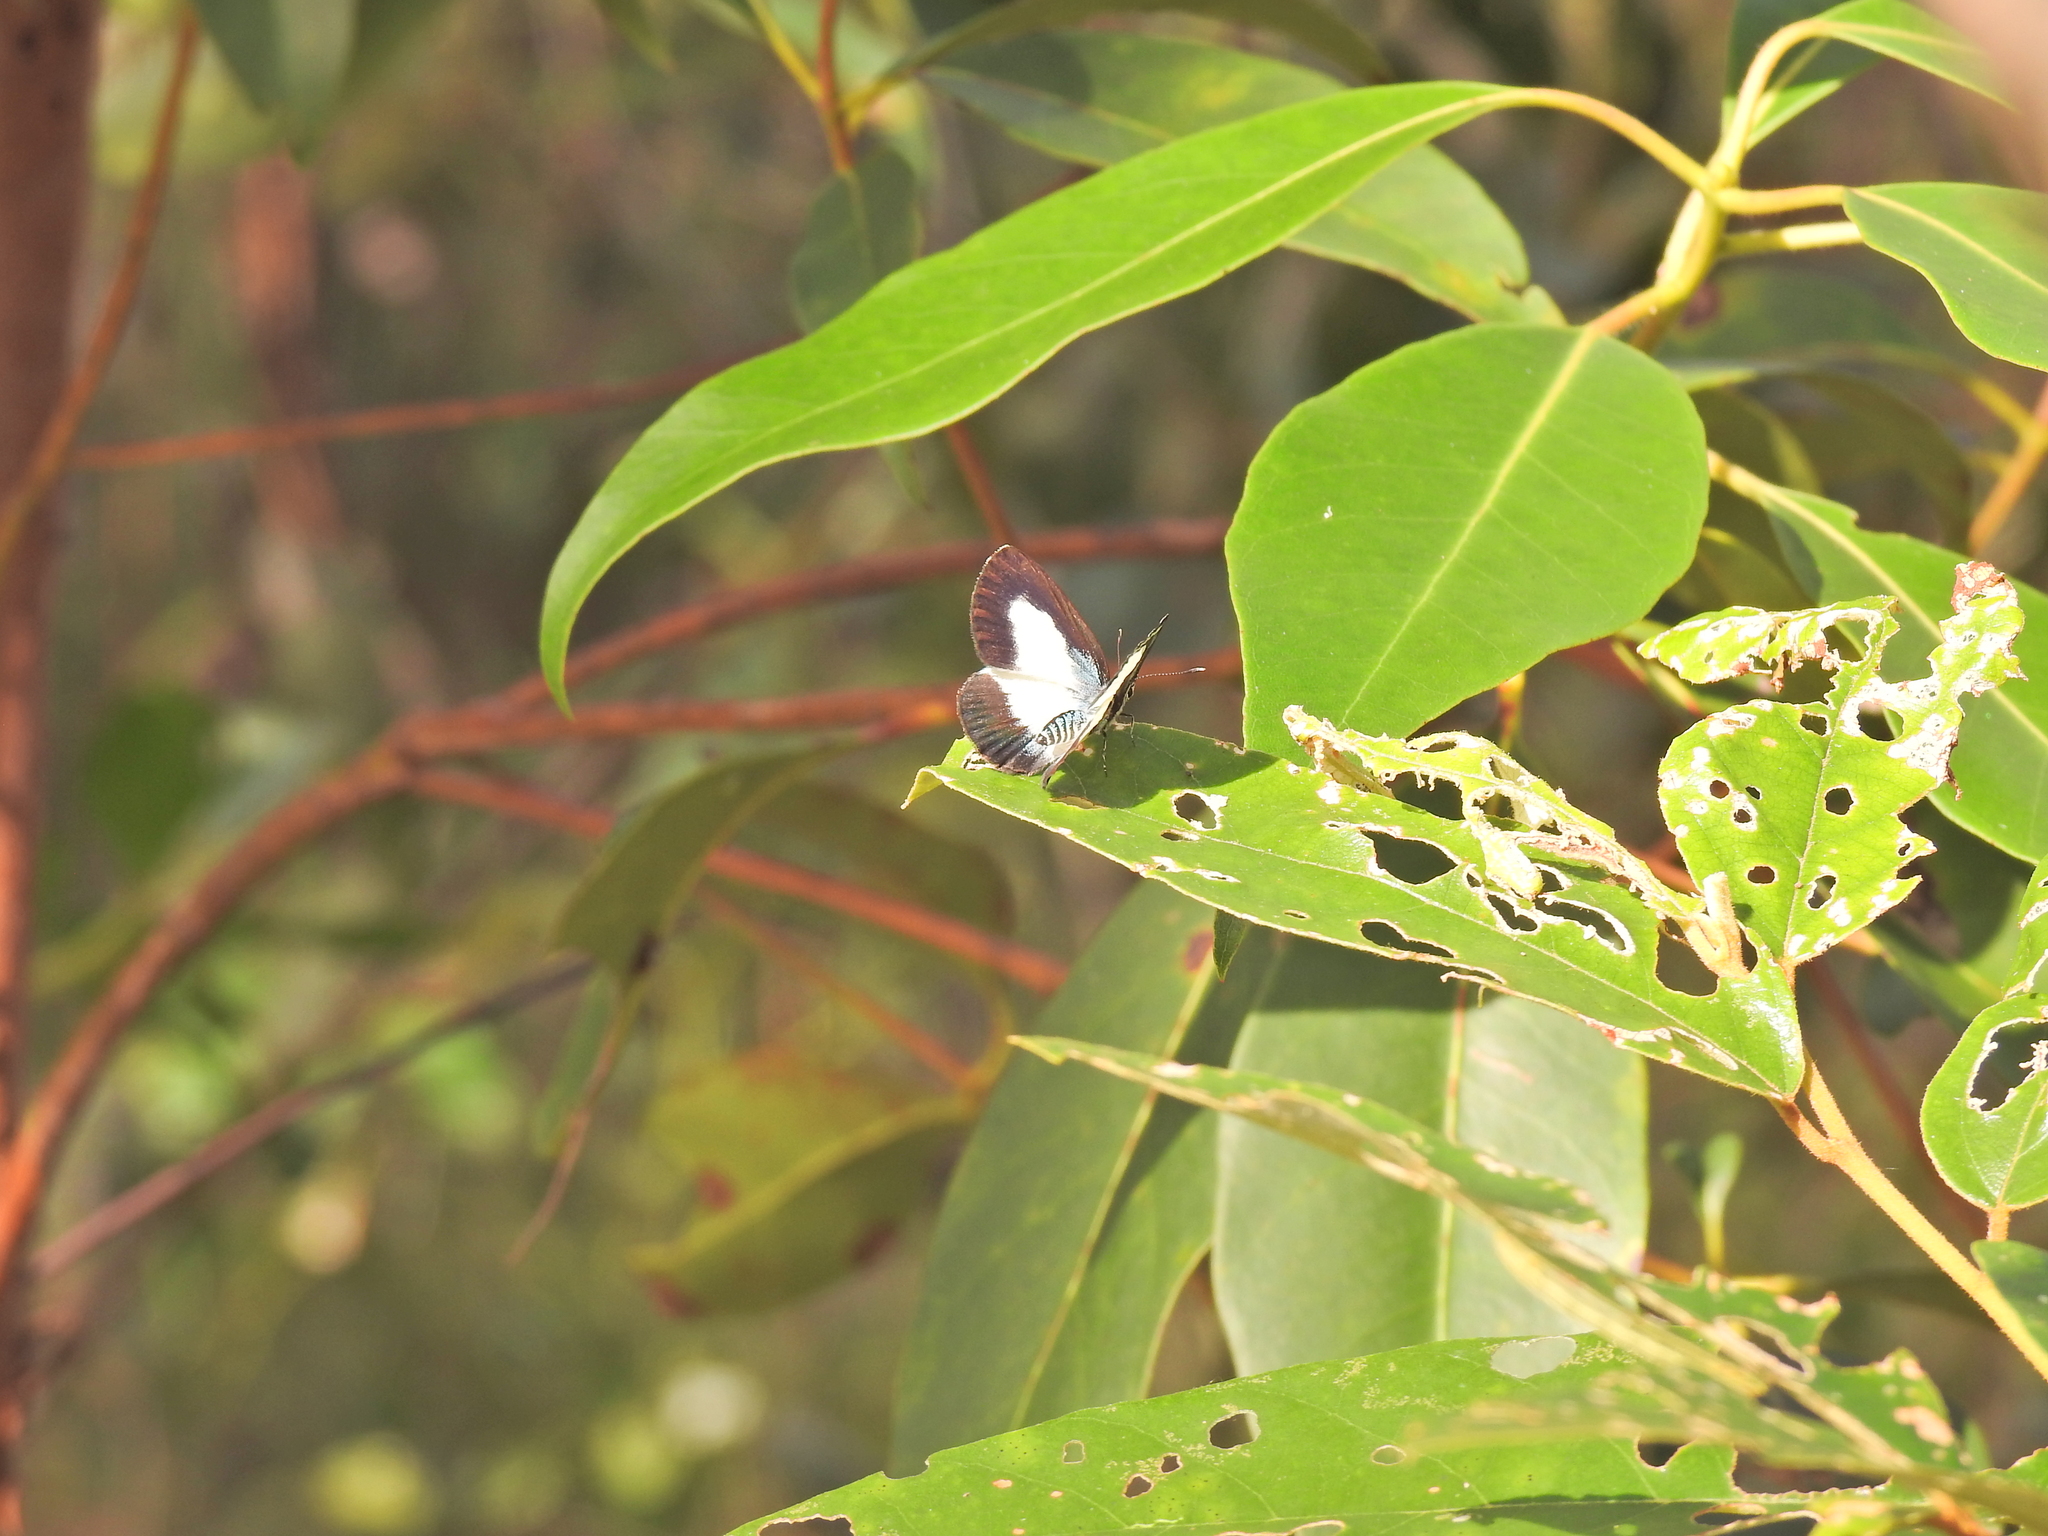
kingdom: Animalia
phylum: Arthropoda
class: Insecta
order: Lepidoptera
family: Lycaenidae
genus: Psychonotis
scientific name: Psychonotis caelius
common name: Small green banded blue
